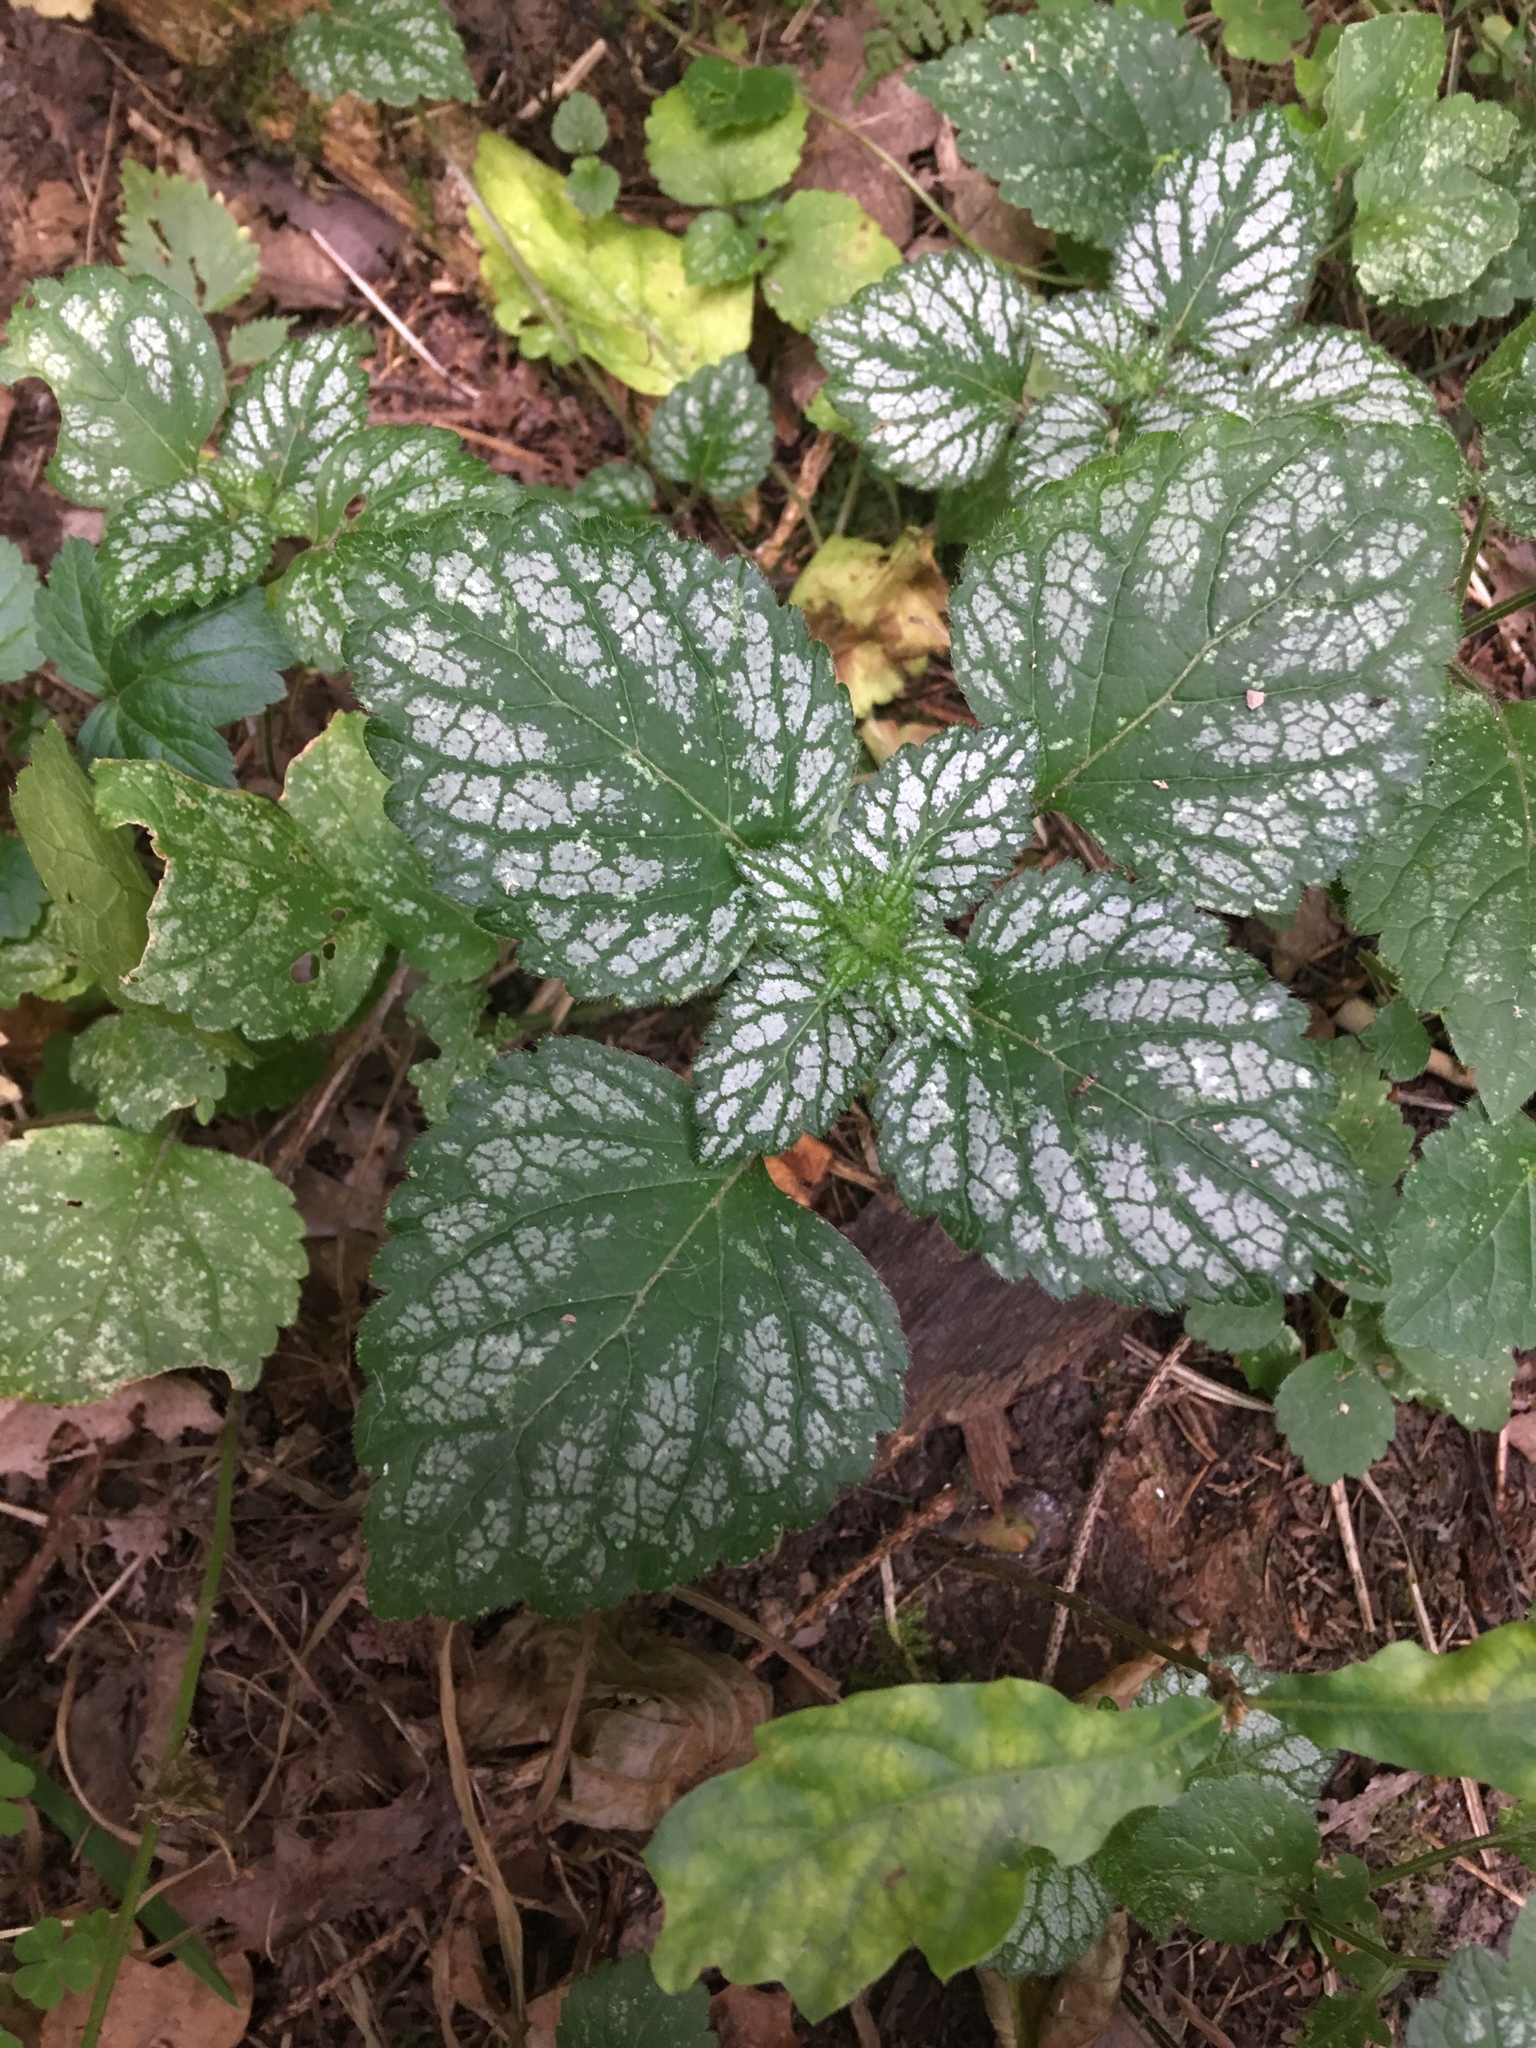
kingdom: Plantae
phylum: Tracheophyta
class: Magnoliopsida
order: Lamiales
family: Lamiaceae
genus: Lamium
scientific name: Lamium galeobdolon
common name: Yellow archangel
